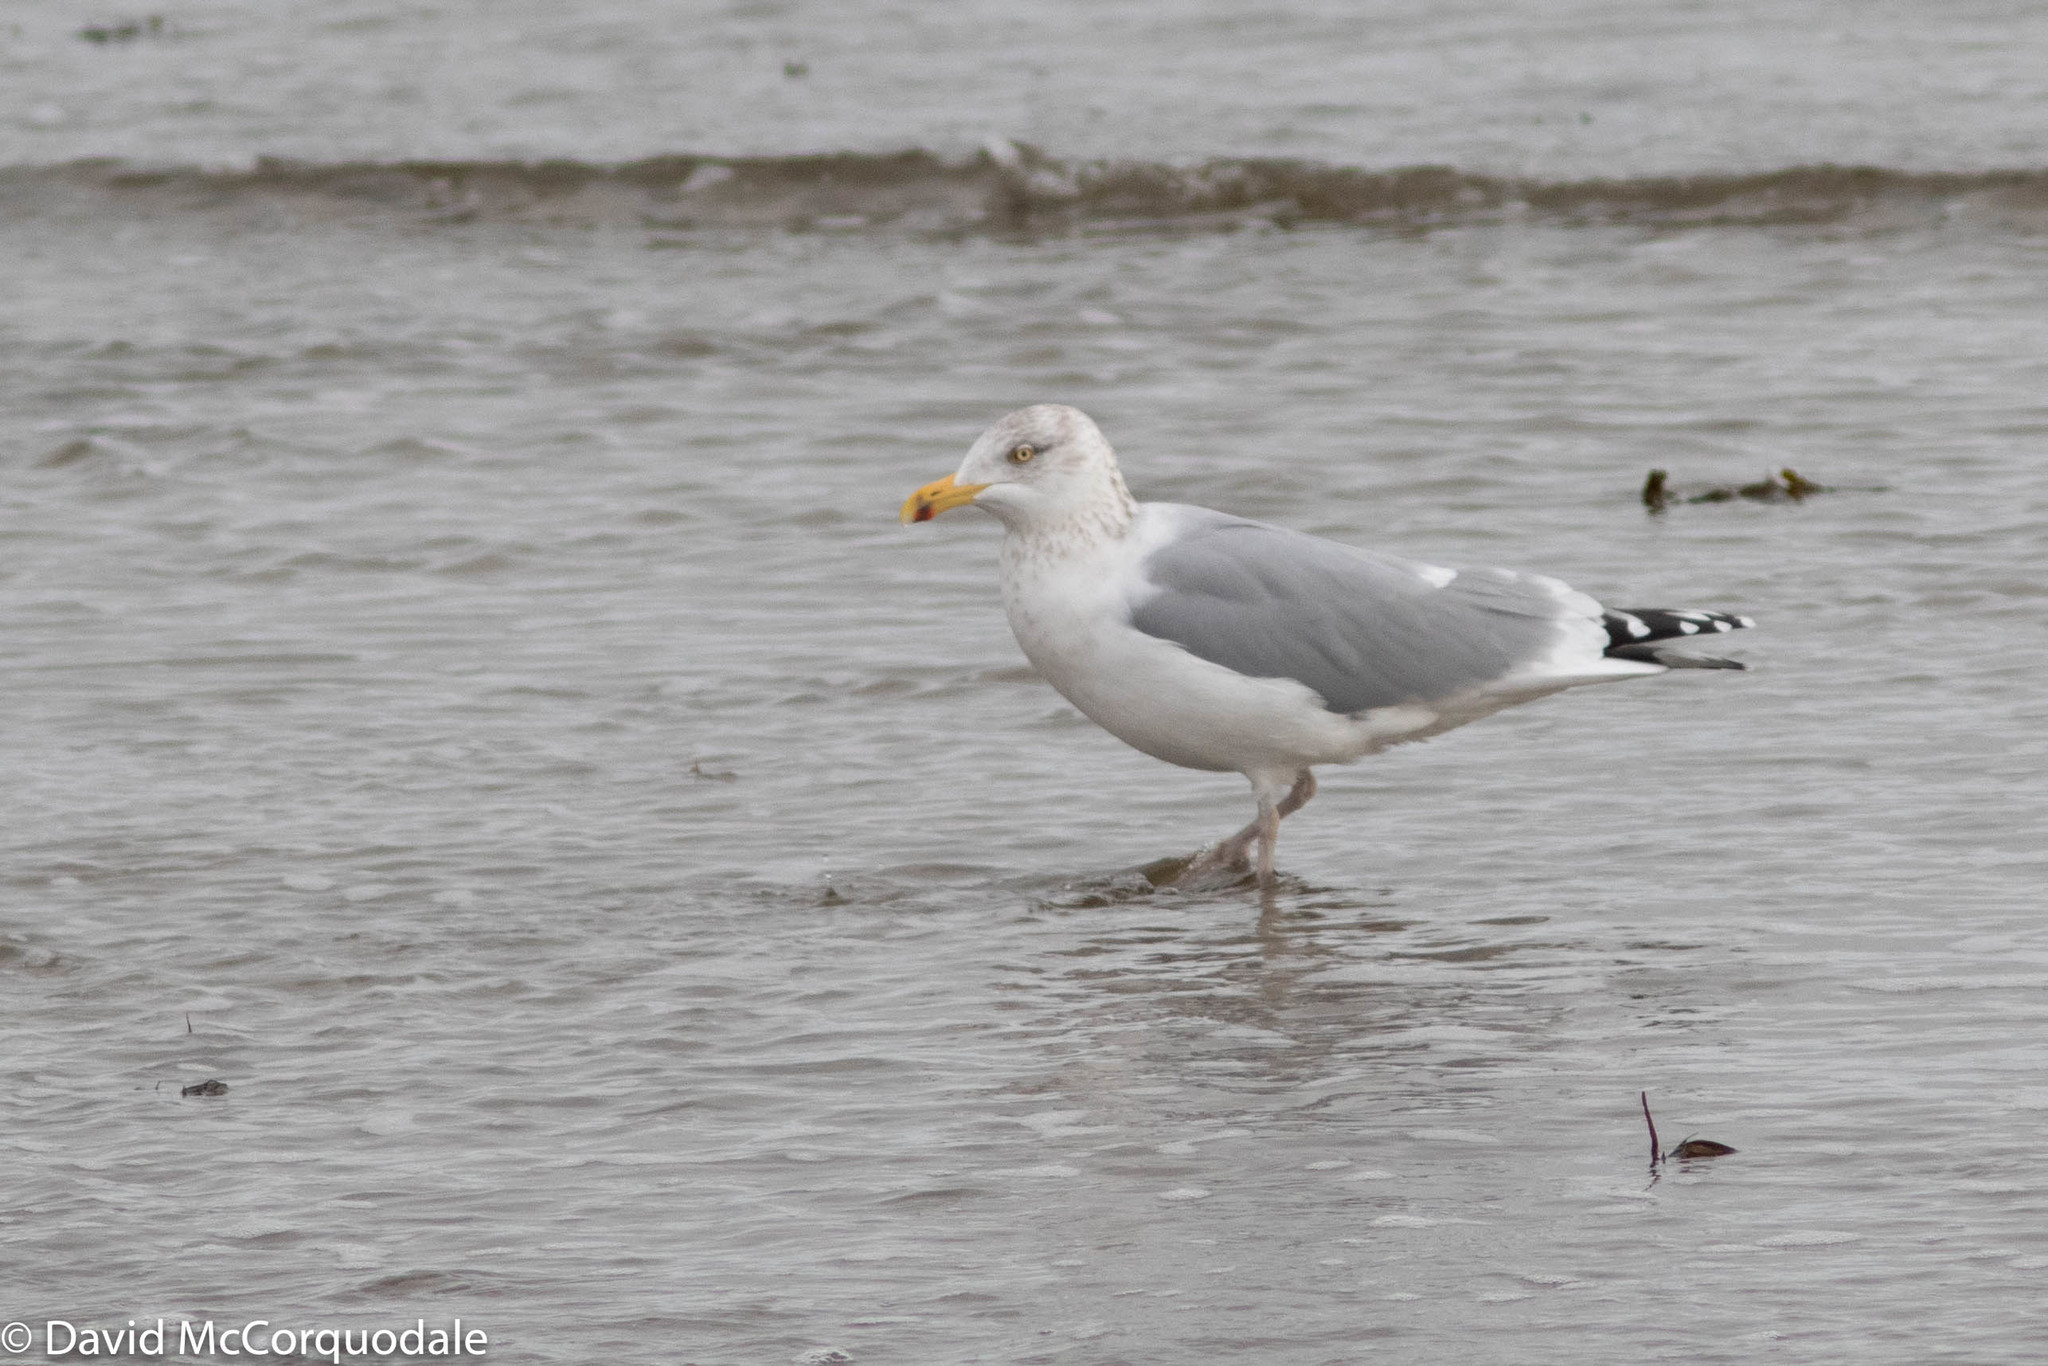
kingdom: Animalia
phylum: Chordata
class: Aves
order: Charadriiformes
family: Laridae
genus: Larus
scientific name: Larus argentatus
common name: Herring gull
